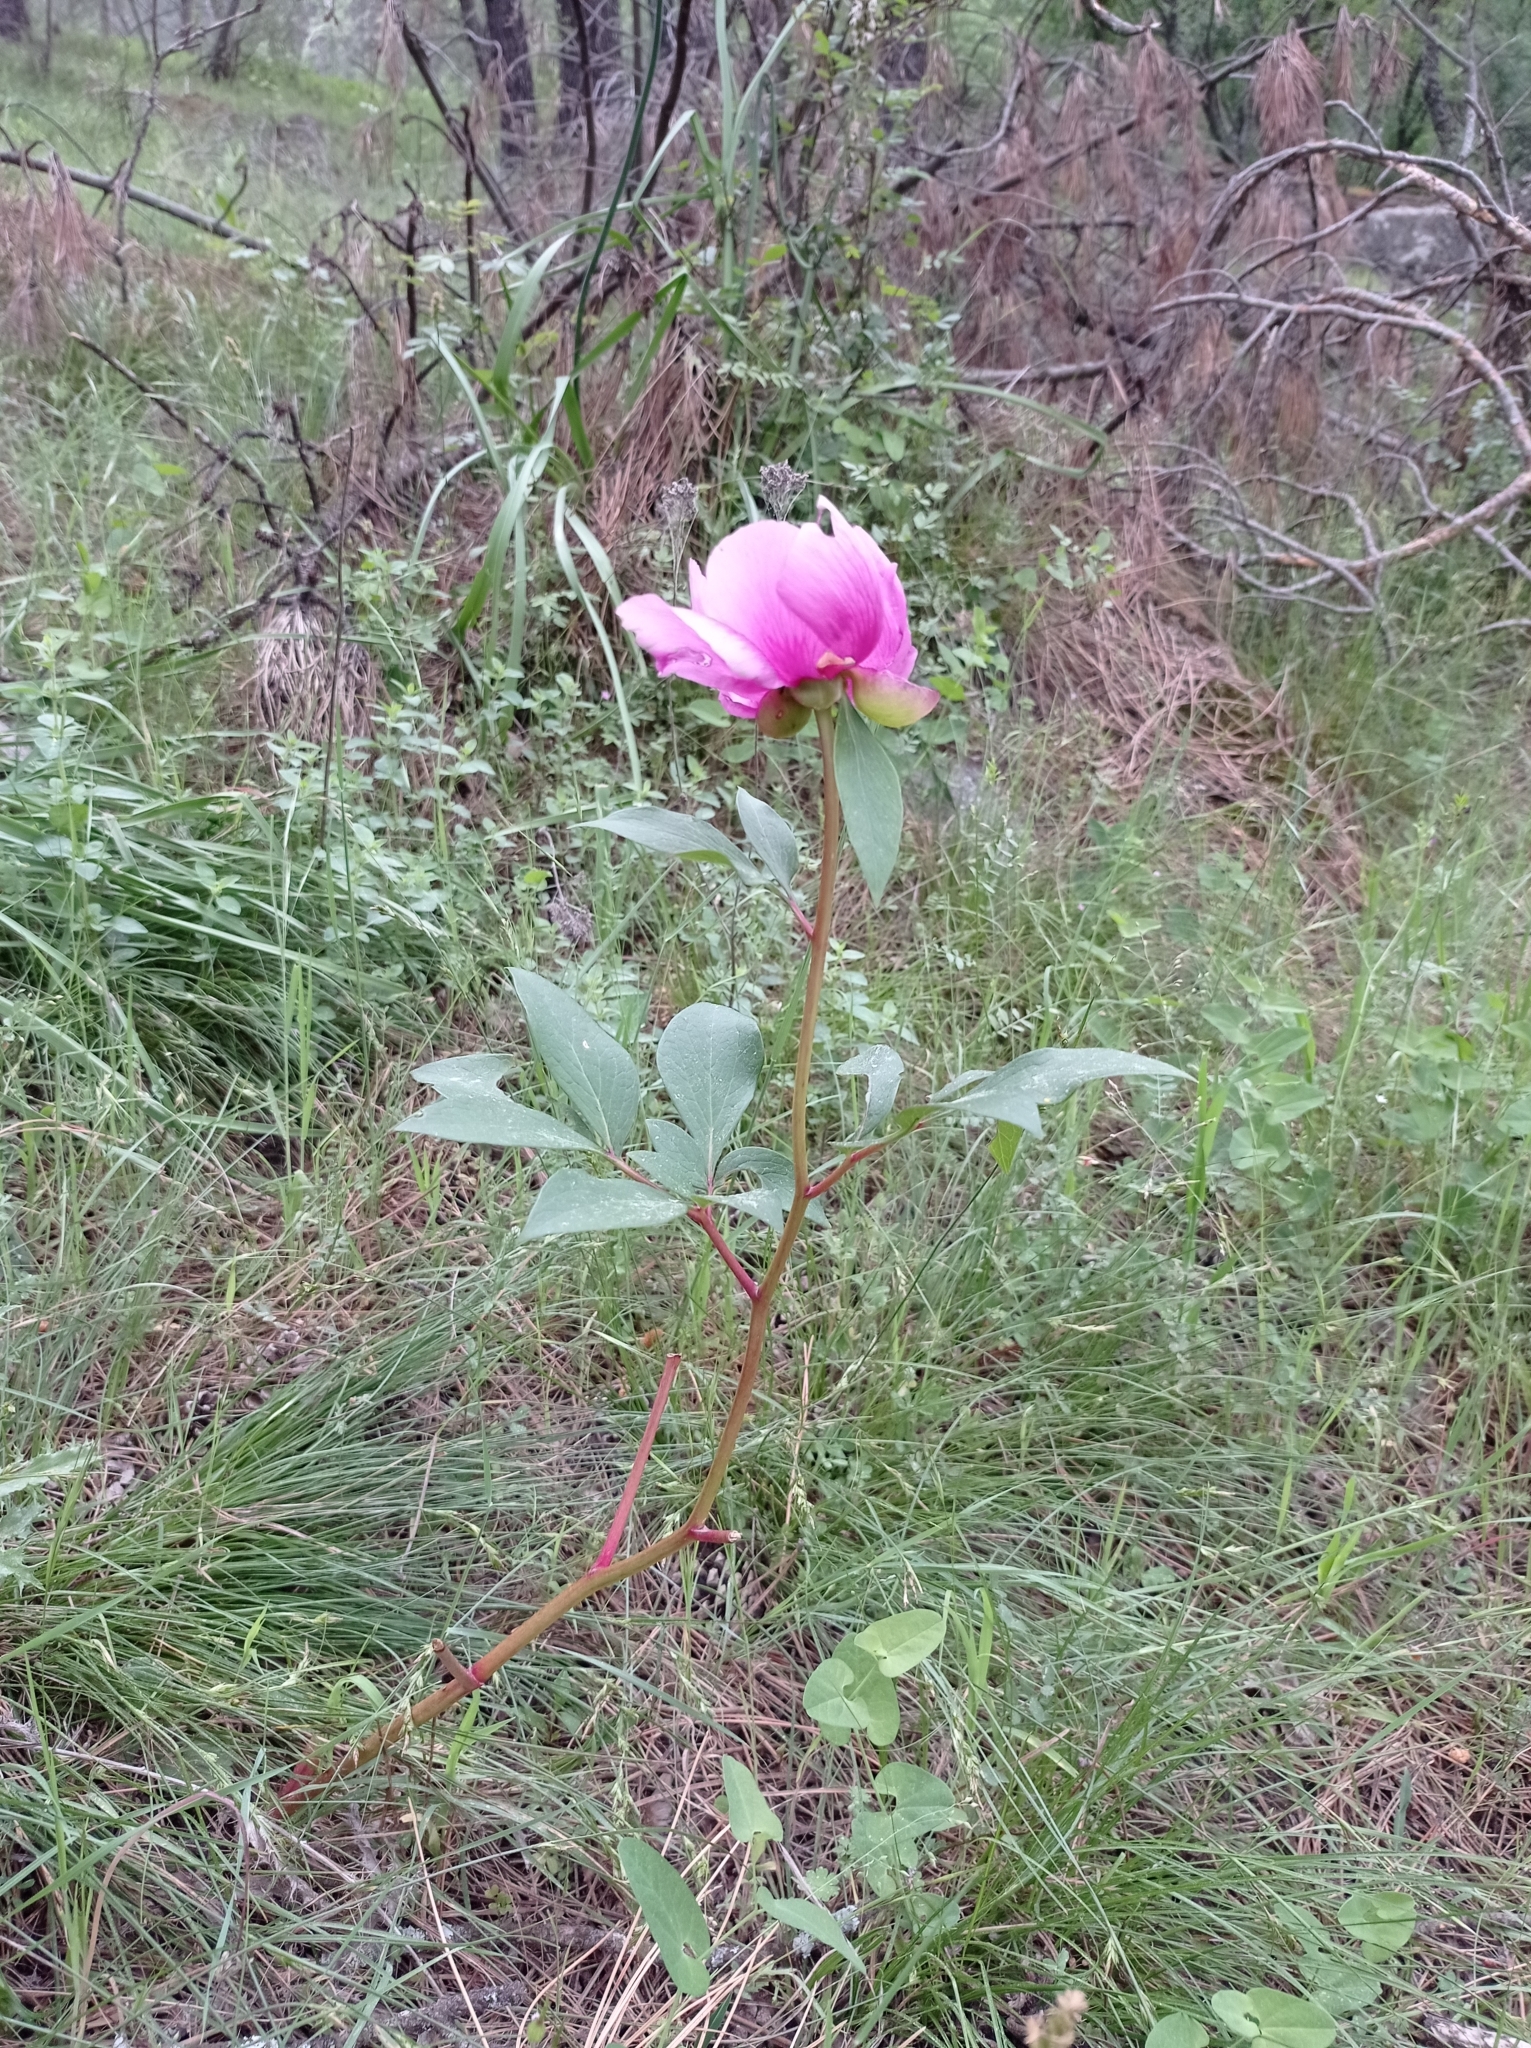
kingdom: Plantae
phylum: Tracheophyta
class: Magnoliopsida
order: Saxifragales
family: Paeoniaceae
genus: Paeonia
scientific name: Paeonia broteroi
